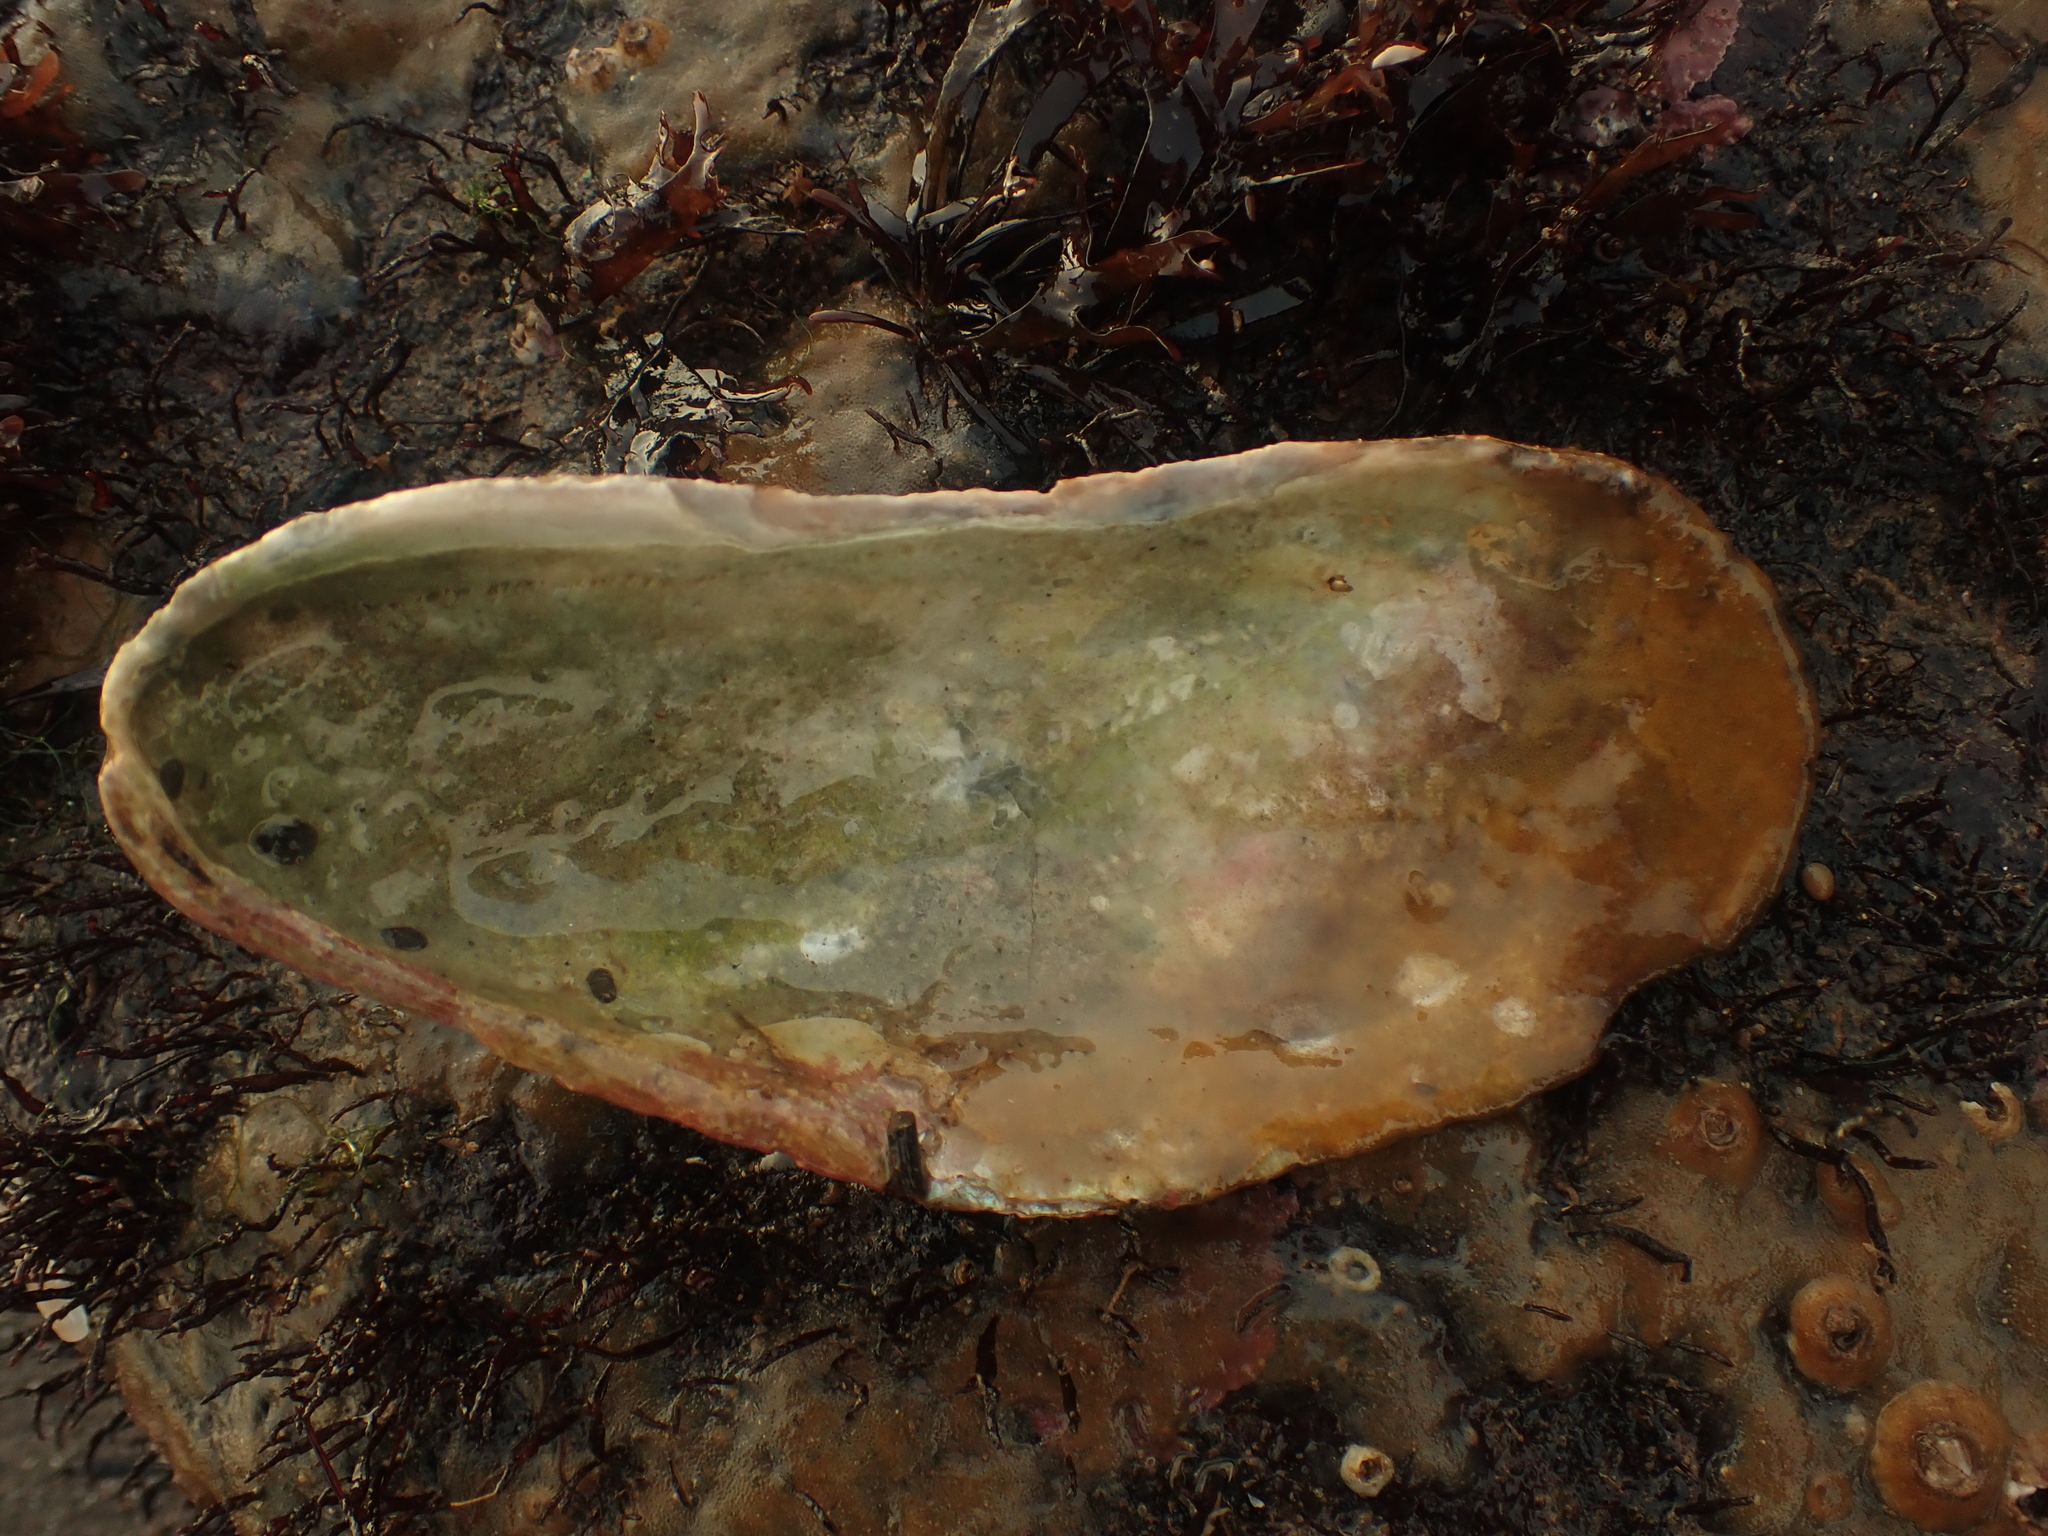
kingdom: Animalia
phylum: Mollusca
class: Bivalvia
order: Mytilida
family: Mytilidae
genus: Modiolus
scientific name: Modiolus modiolus
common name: Horse-mussel
